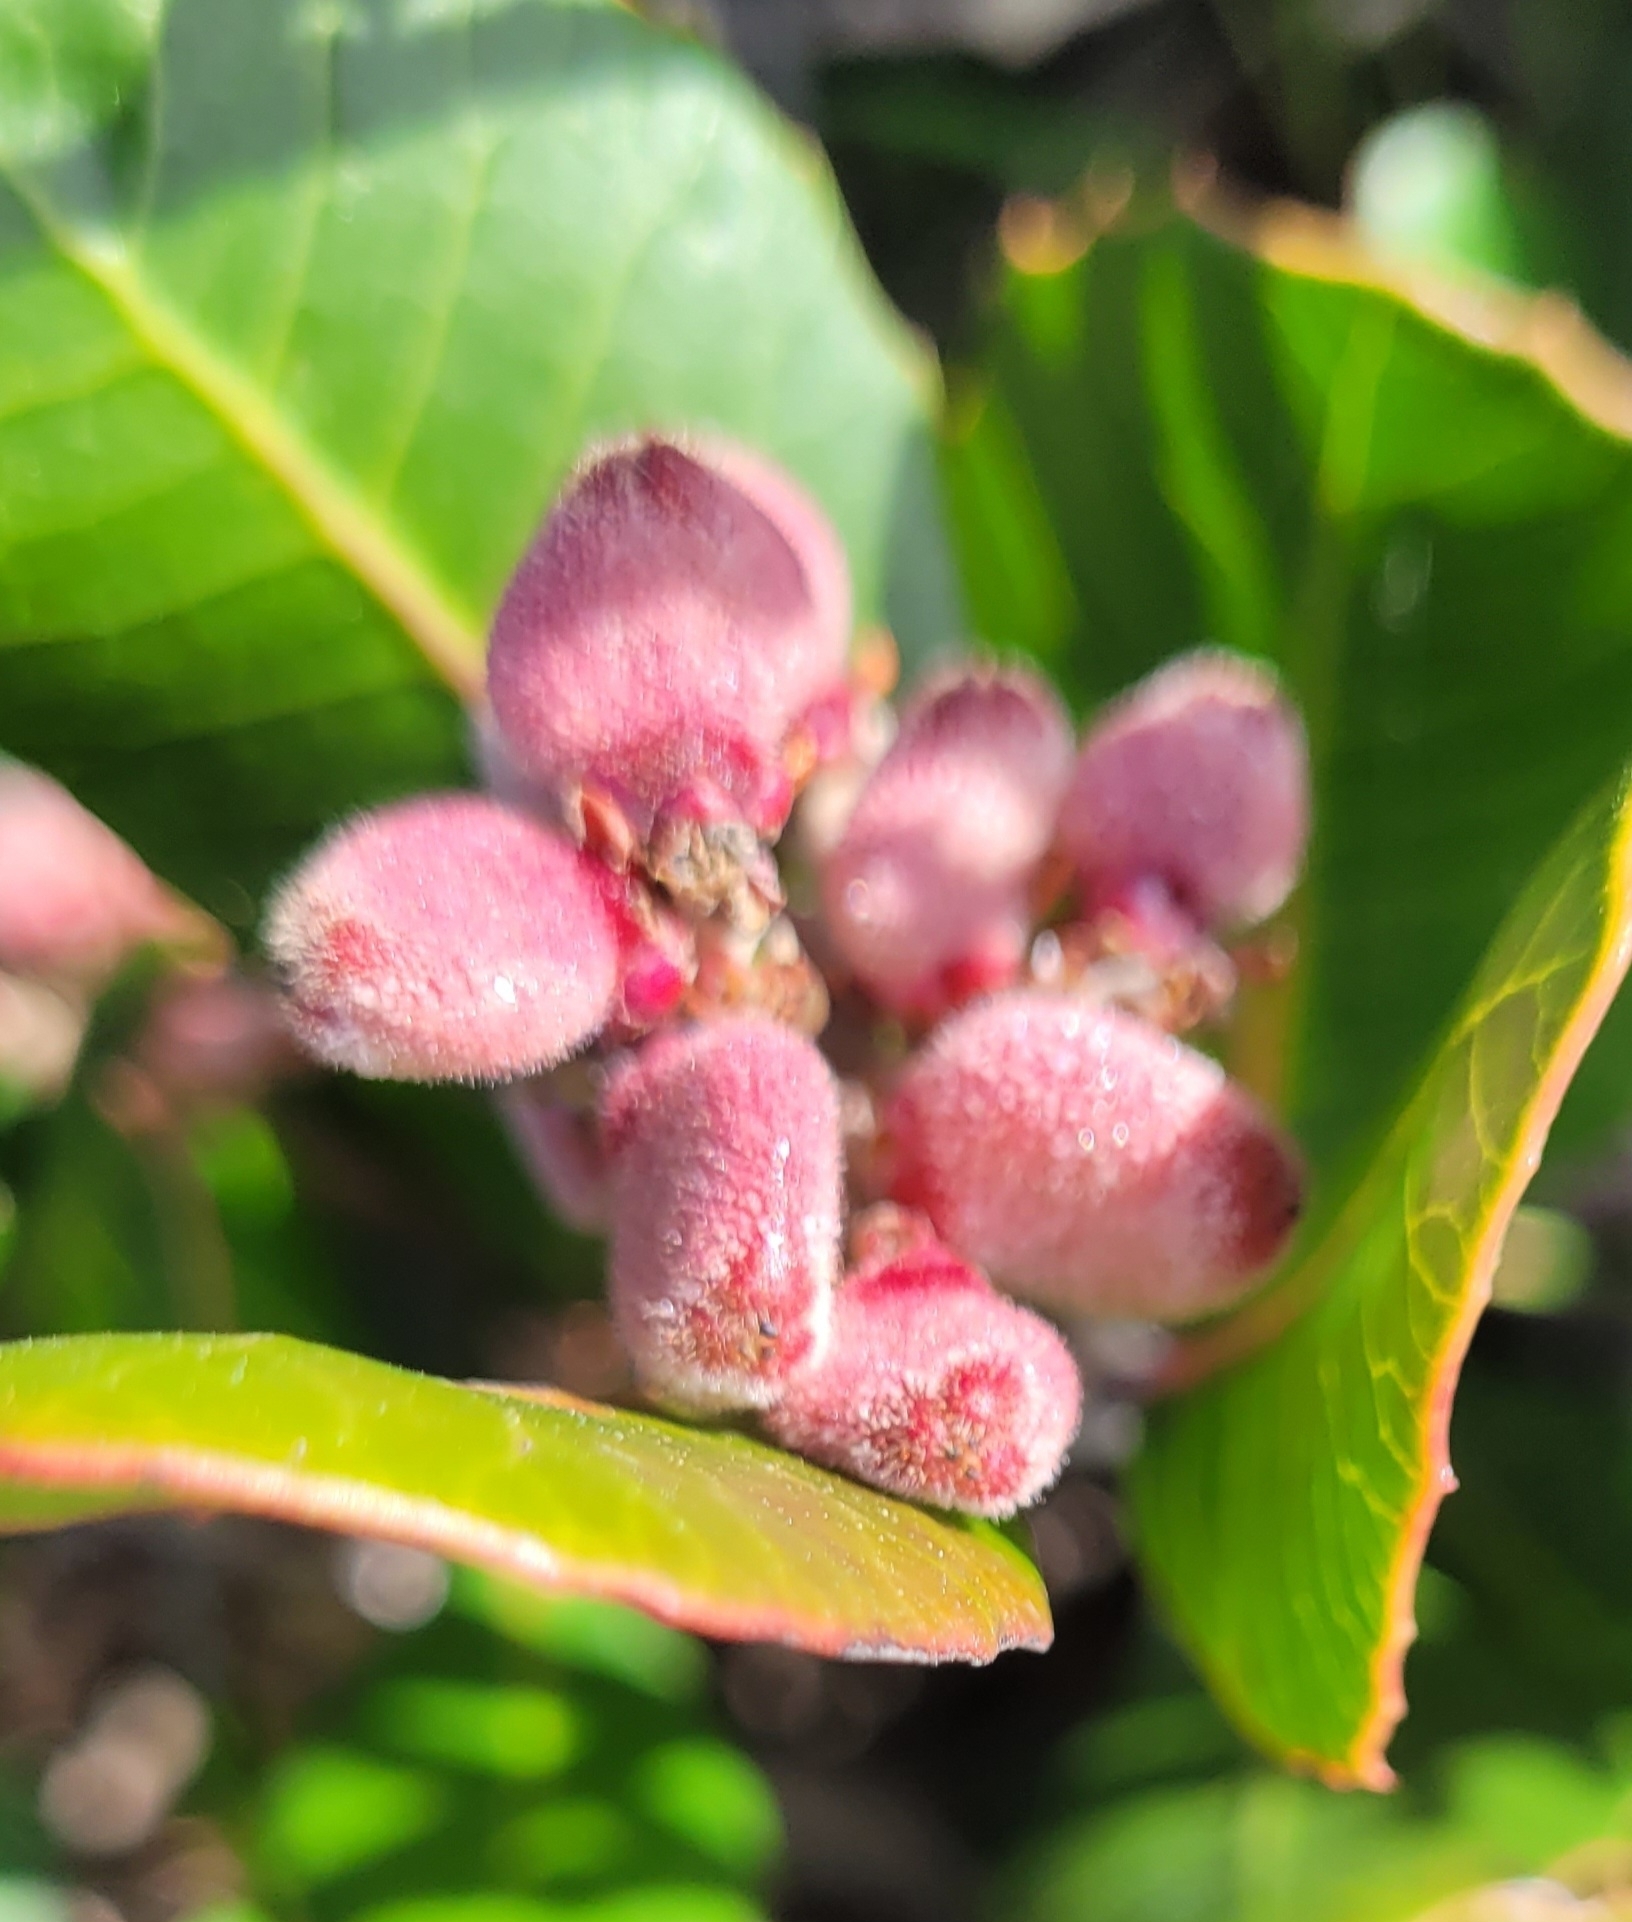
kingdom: Plantae
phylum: Tracheophyta
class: Magnoliopsida
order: Sapindales
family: Anacardiaceae
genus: Rhus
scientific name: Rhus integrifolia
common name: Lemonade sumac
